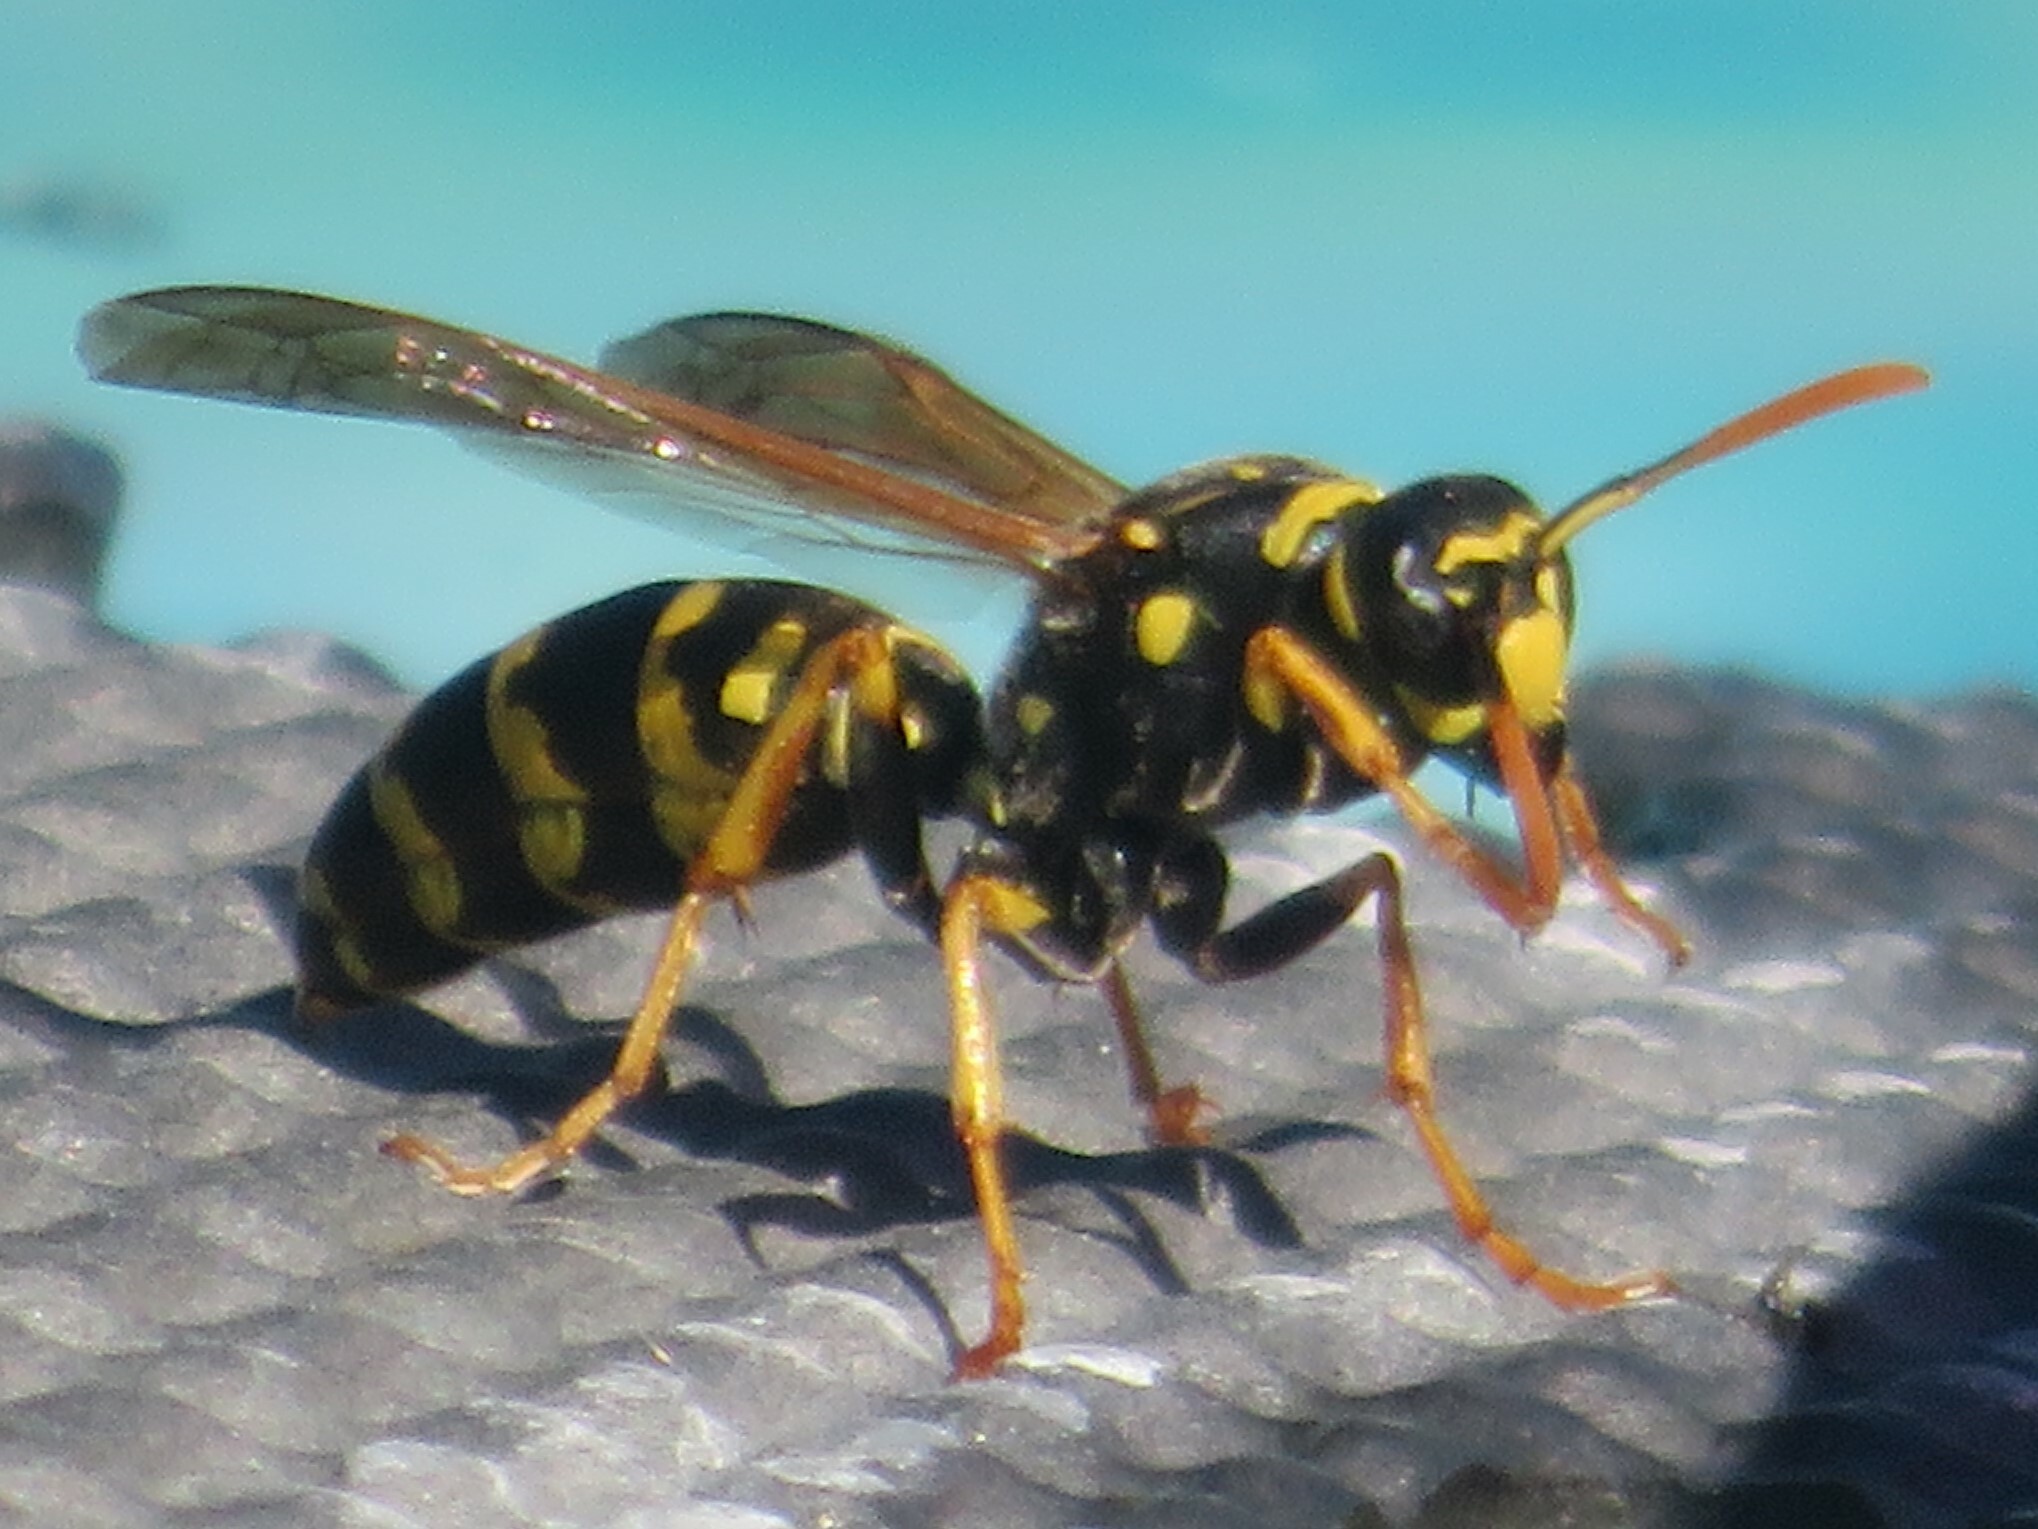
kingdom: Animalia
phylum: Arthropoda
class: Insecta
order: Hymenoptera
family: Eumenidae
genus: Polistes
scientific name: Polistes dominula
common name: Paper wasp
